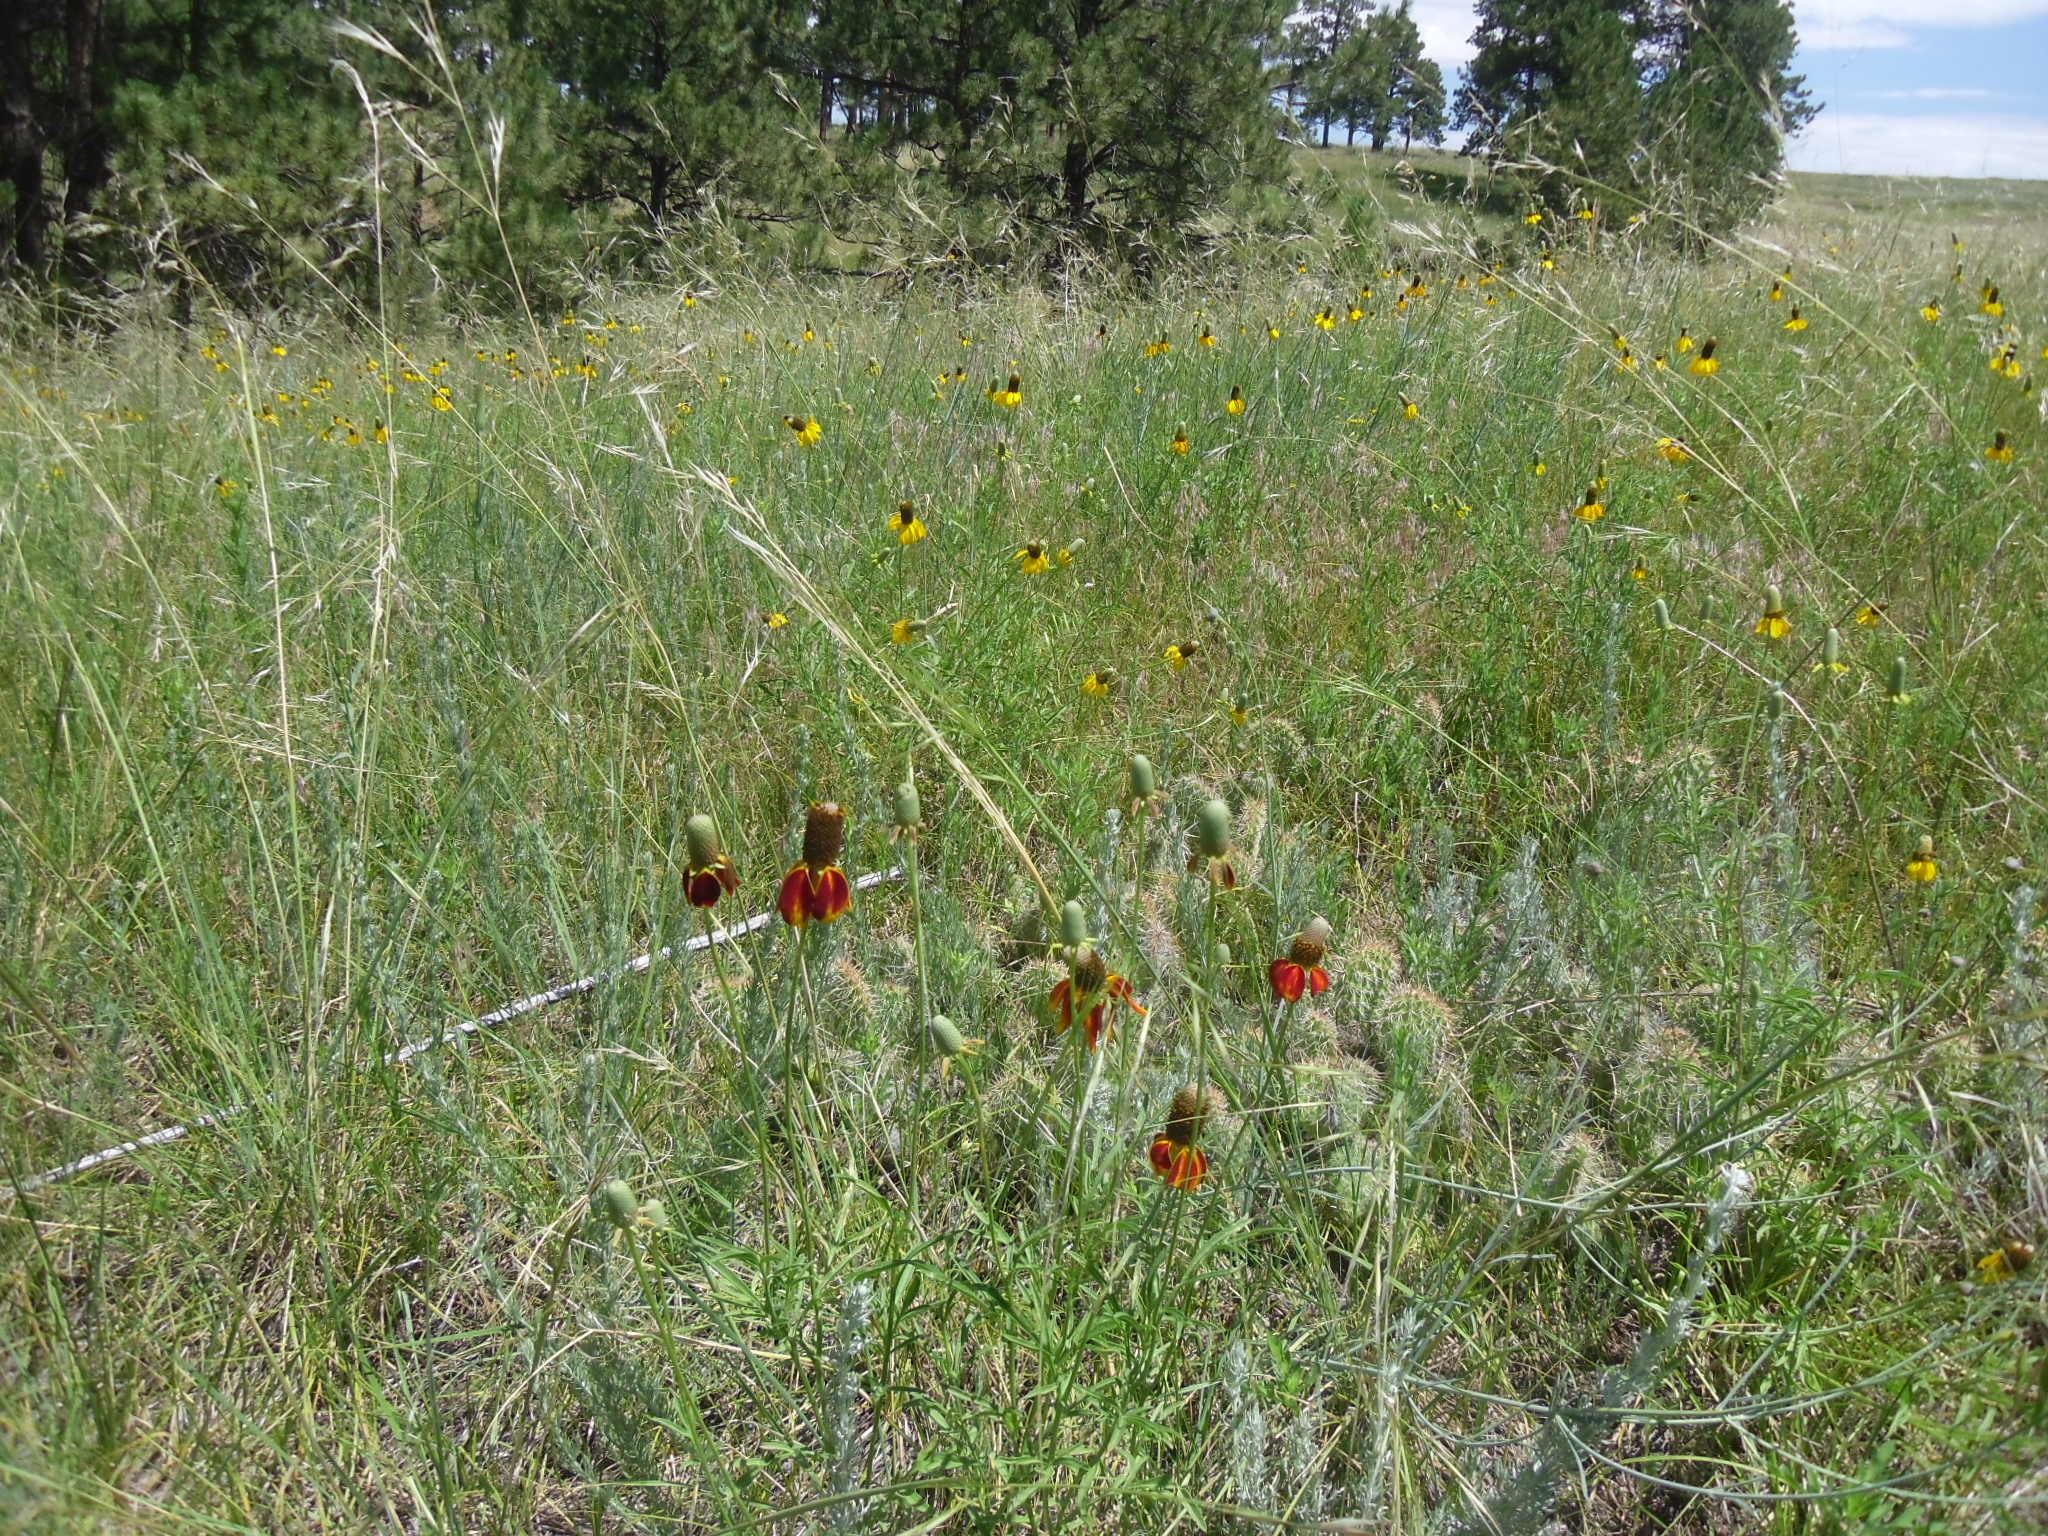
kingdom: Plantae
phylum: Tracheophyta
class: Magnoliopsida
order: Asterales
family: Asteraceae
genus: Ratibida
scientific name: Ratibida columnifera
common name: Prairie coneflower
